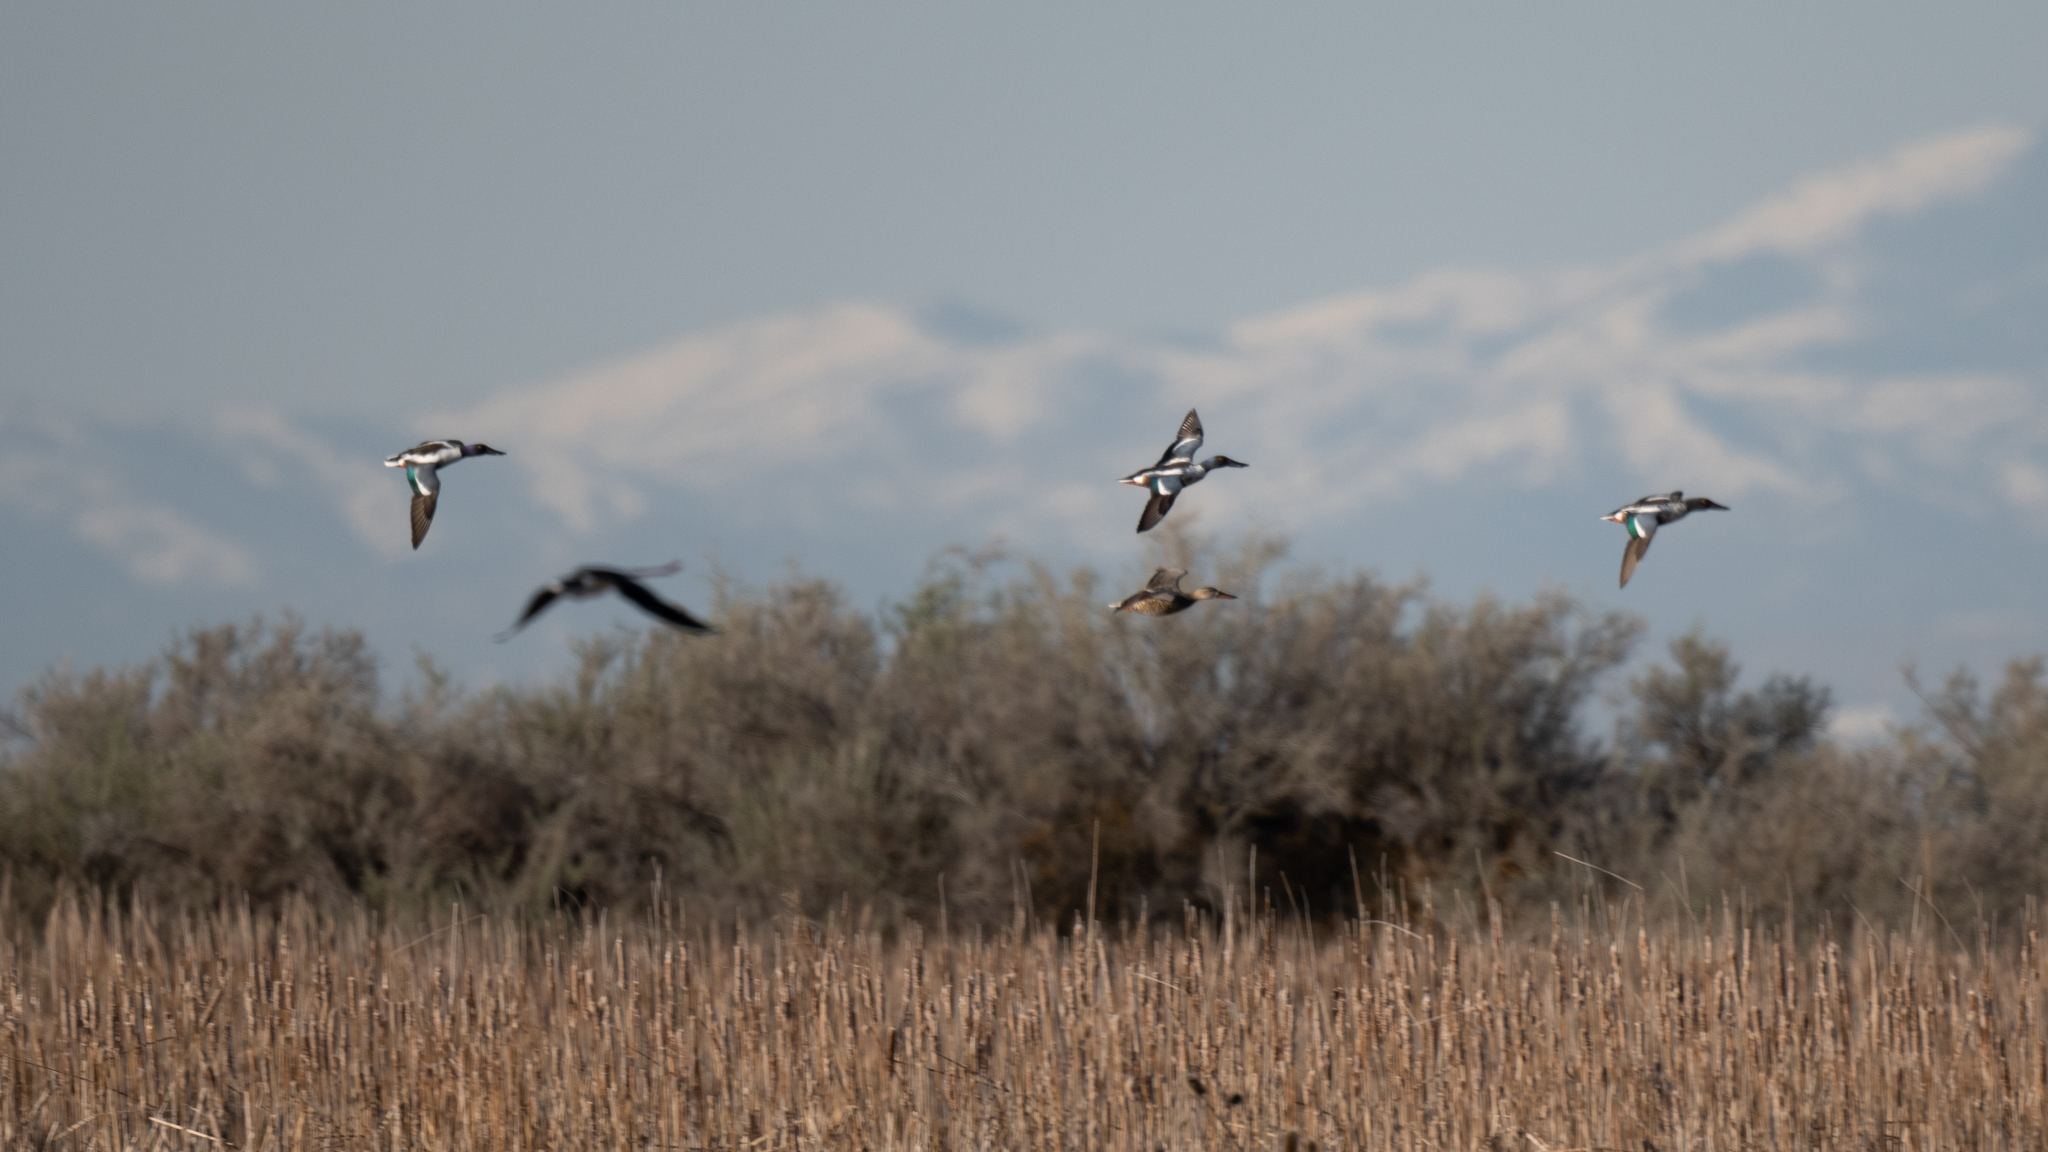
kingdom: Animalia
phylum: Chordata
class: Aves
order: Anseriformes
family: Anatidae
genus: Spatula
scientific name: Spatula clypeata
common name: Northern shoveler
